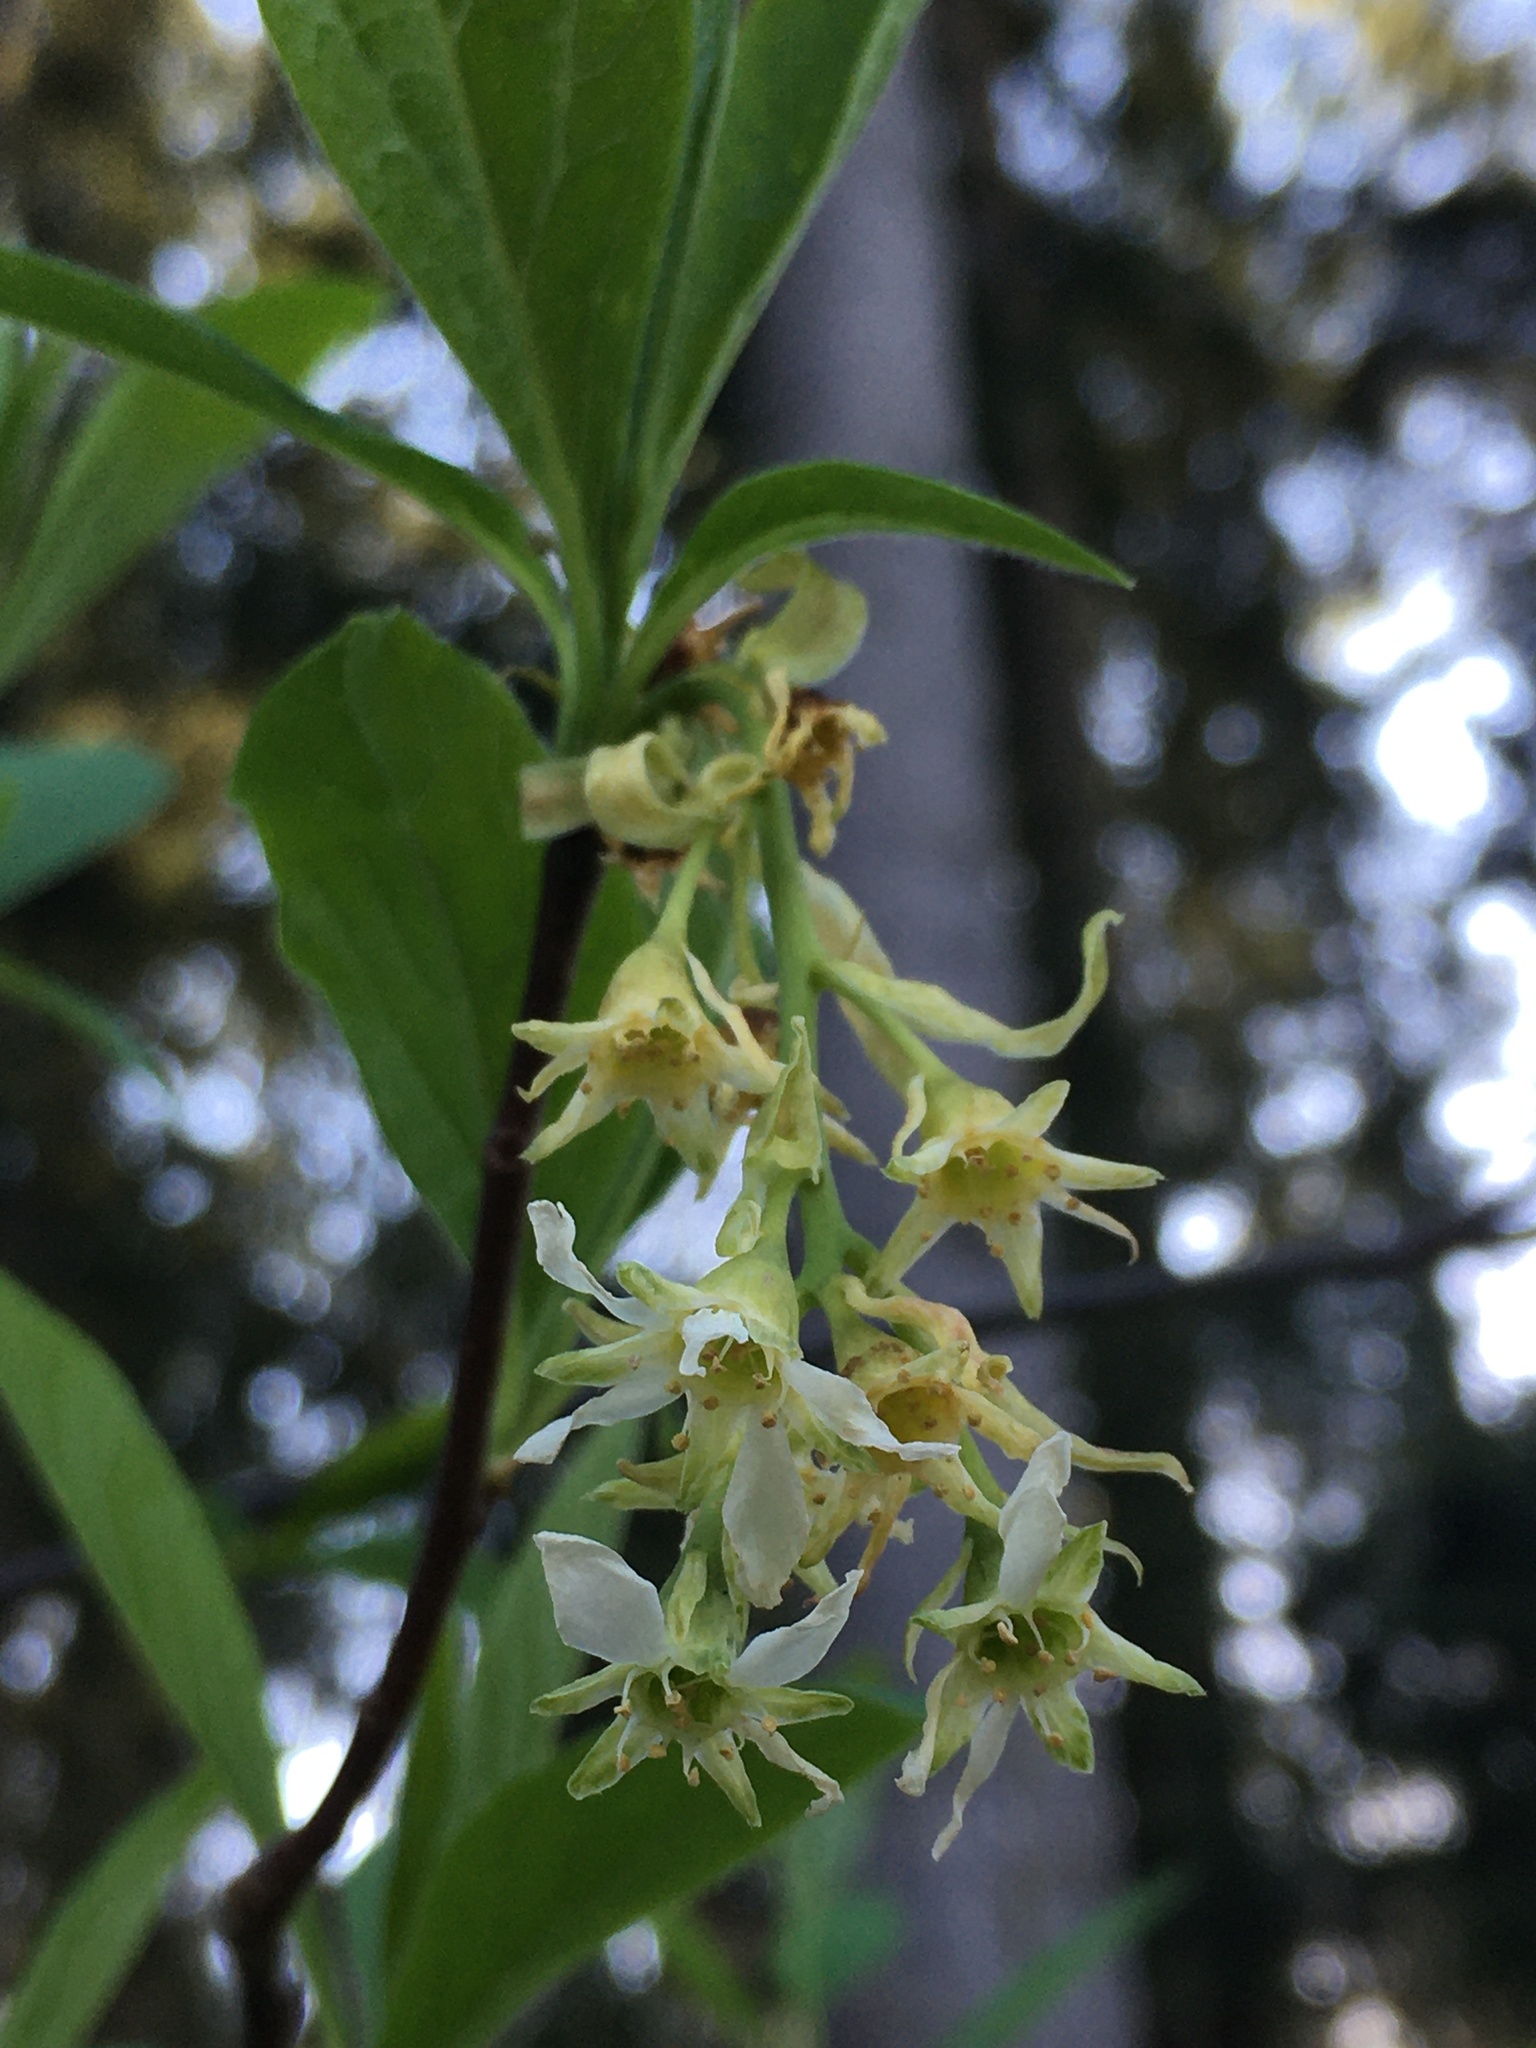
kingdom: Plantae
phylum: Tracheophyta
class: Magnoliopsida
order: Rosales
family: Rosaceae
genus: Oemleria
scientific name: Oemleria cerasiformis
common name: Osoberry
